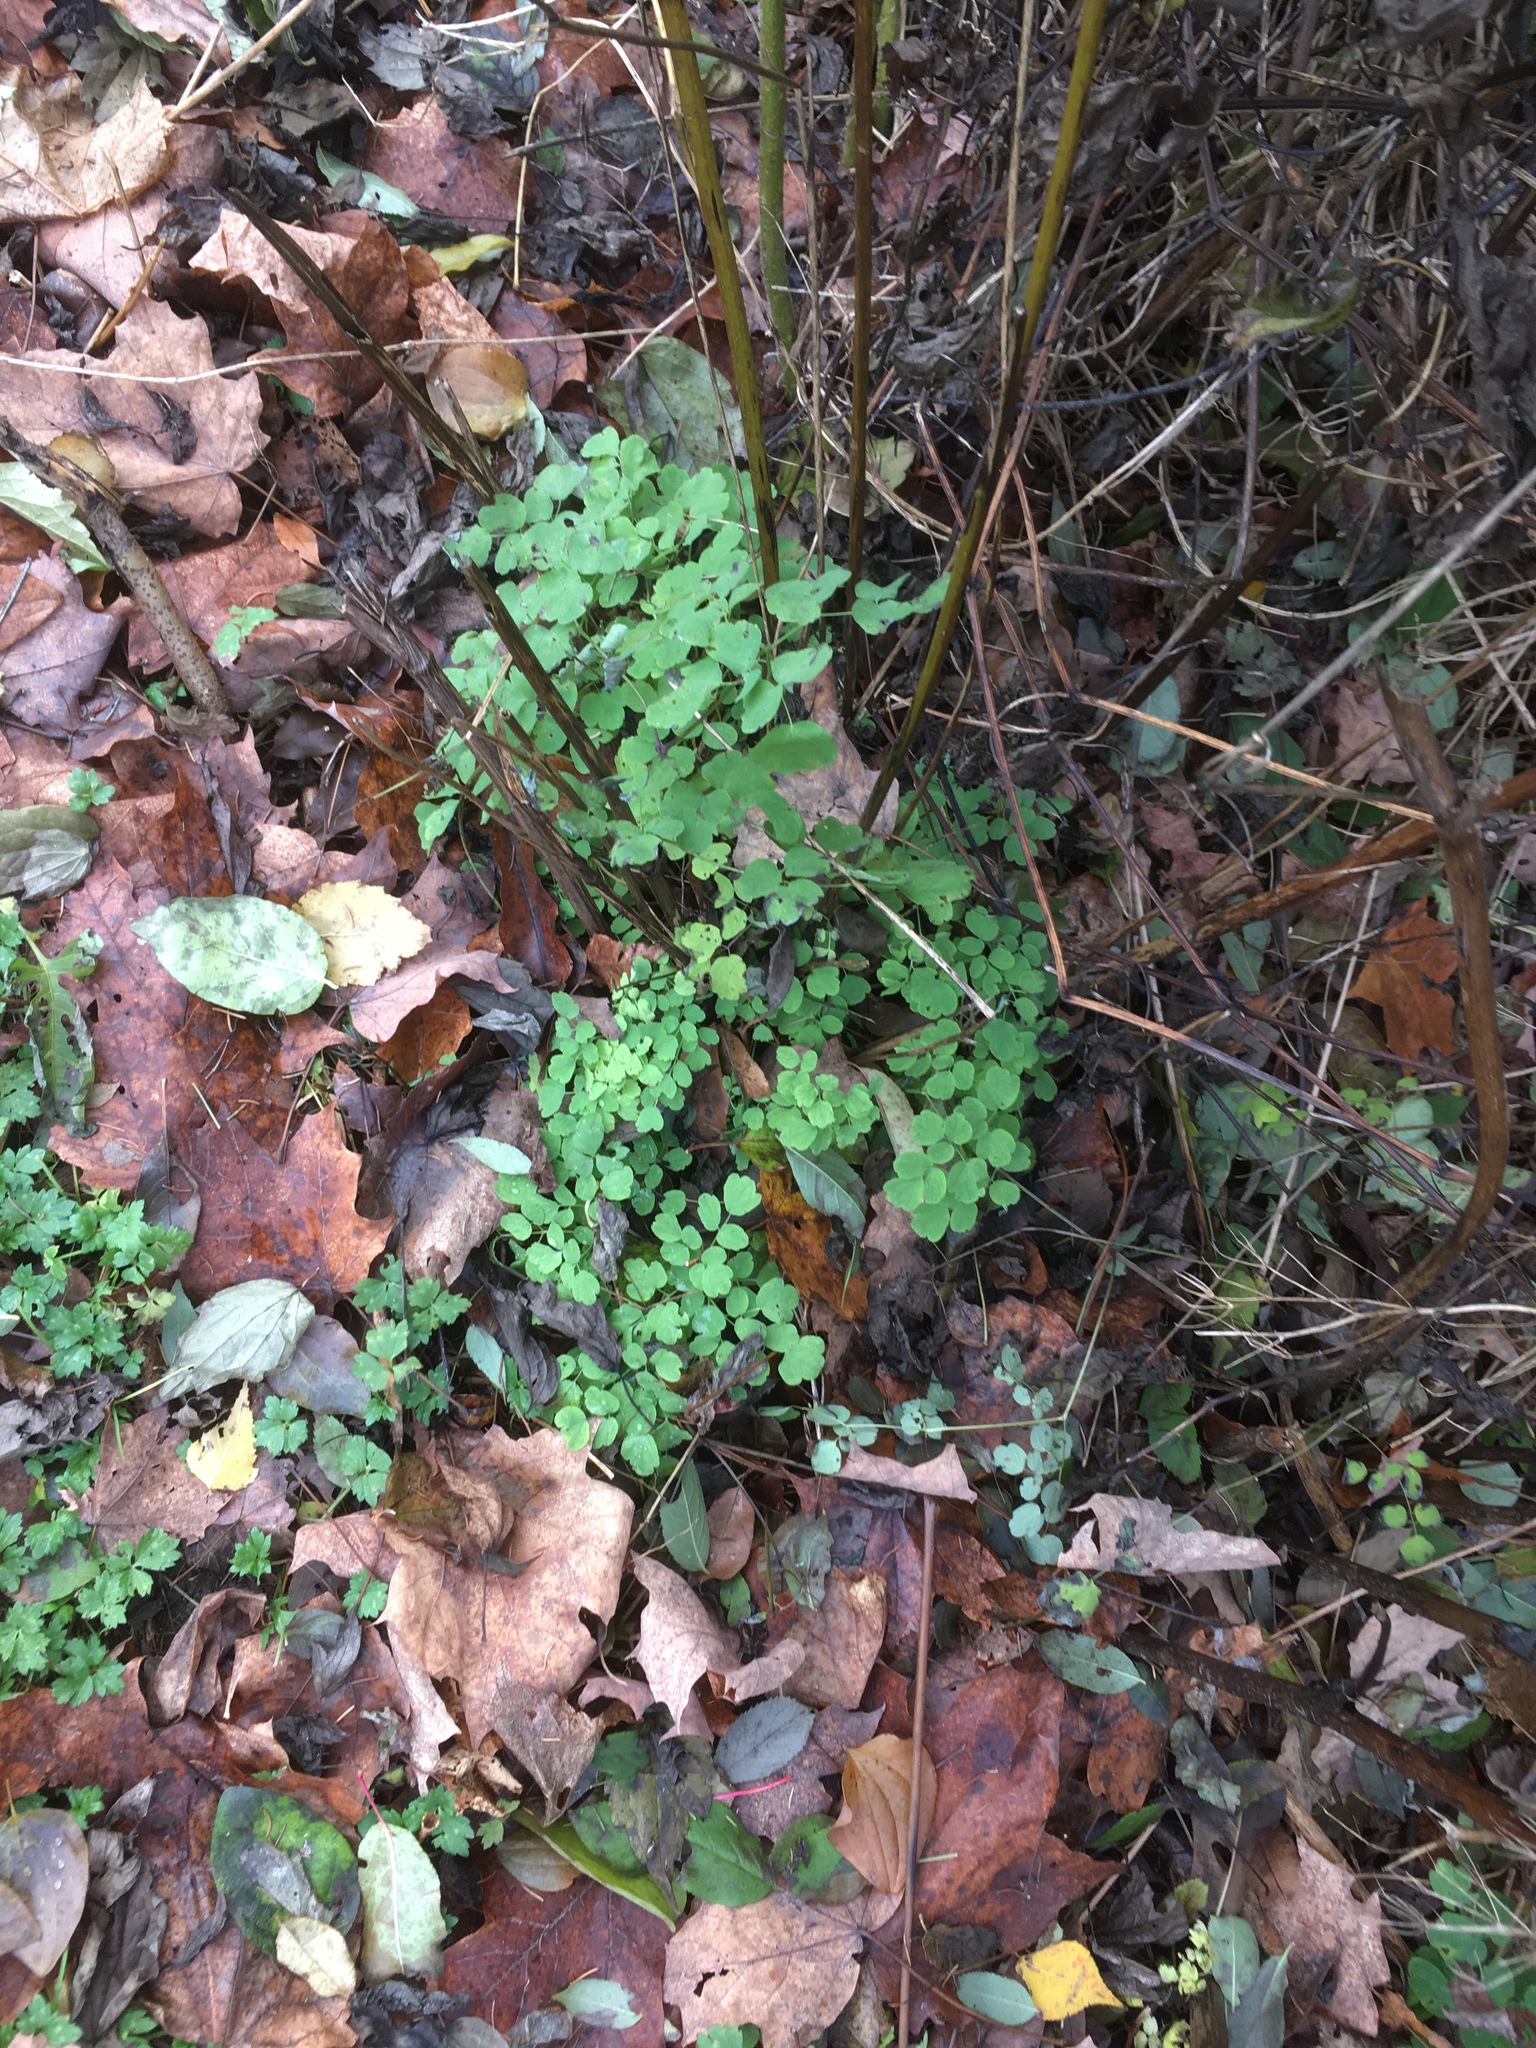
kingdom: Plantae
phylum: Tracheophyta
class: Magnoliopsida
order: Ranunculales
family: Ranunculaceae
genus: Thalictrum
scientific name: Thalictrum pubescens
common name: King-of-the-meadow
